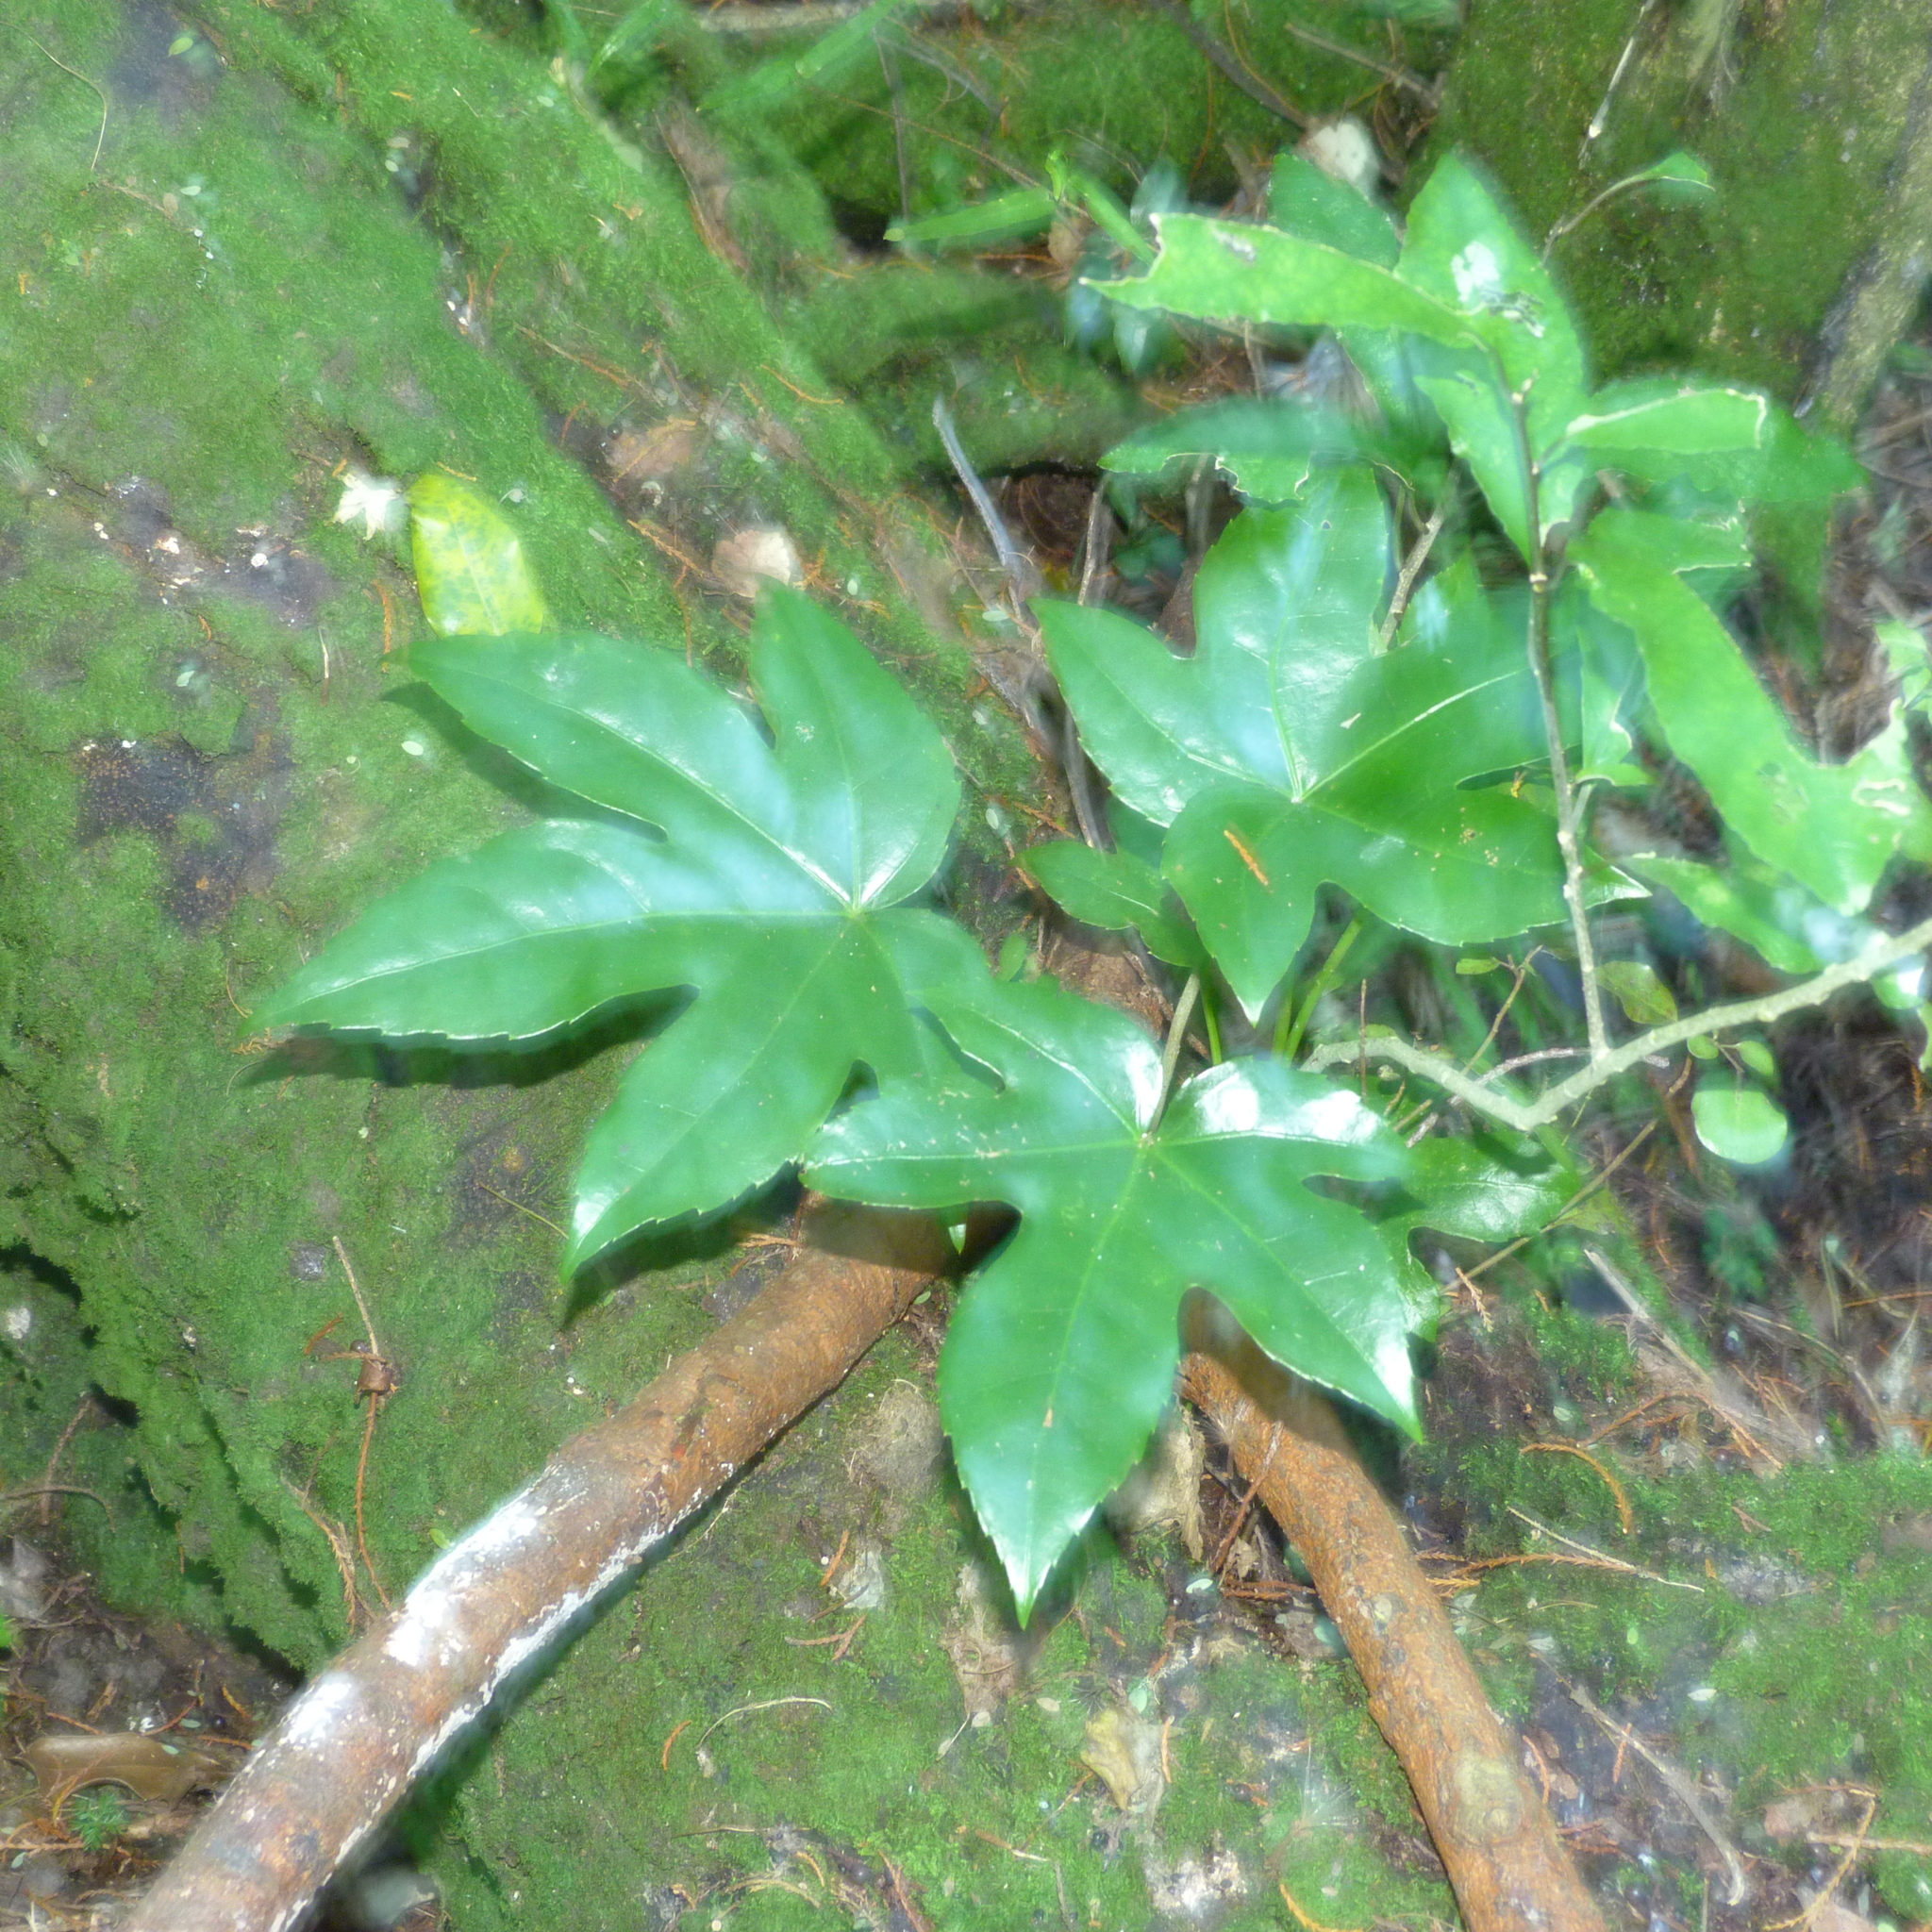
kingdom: Plantae
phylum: Tracheophyta
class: Magnoliopsida
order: Apiales
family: Araliaceae
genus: Fatsia
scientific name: Fatsia japonica
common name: Fatsia
